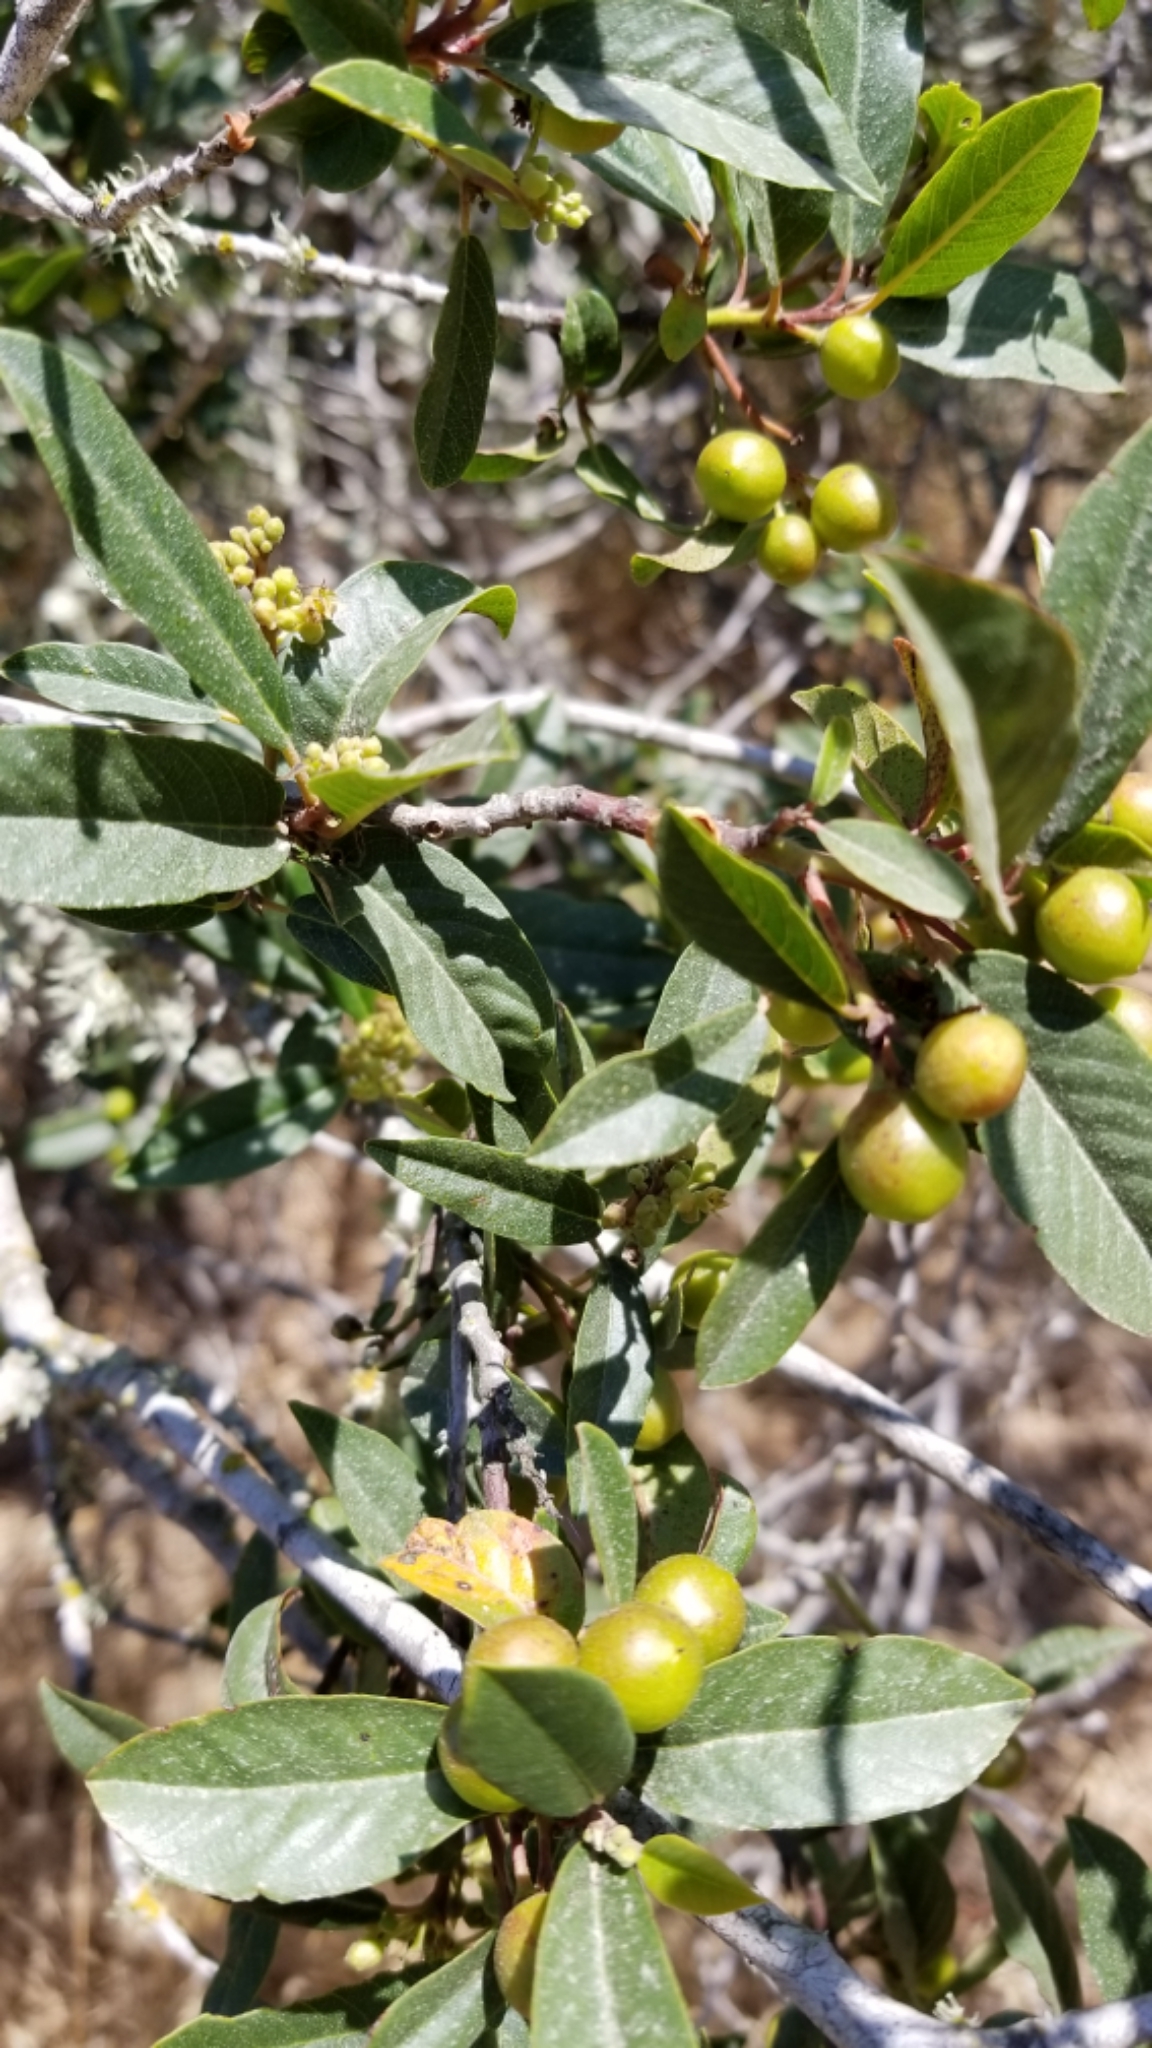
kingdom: Plantae
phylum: Tracheophyta
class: Magnoliopsida
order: Rosales
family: Rhamnaceae
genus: Frangula
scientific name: Frangula californica
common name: California buckthorn
